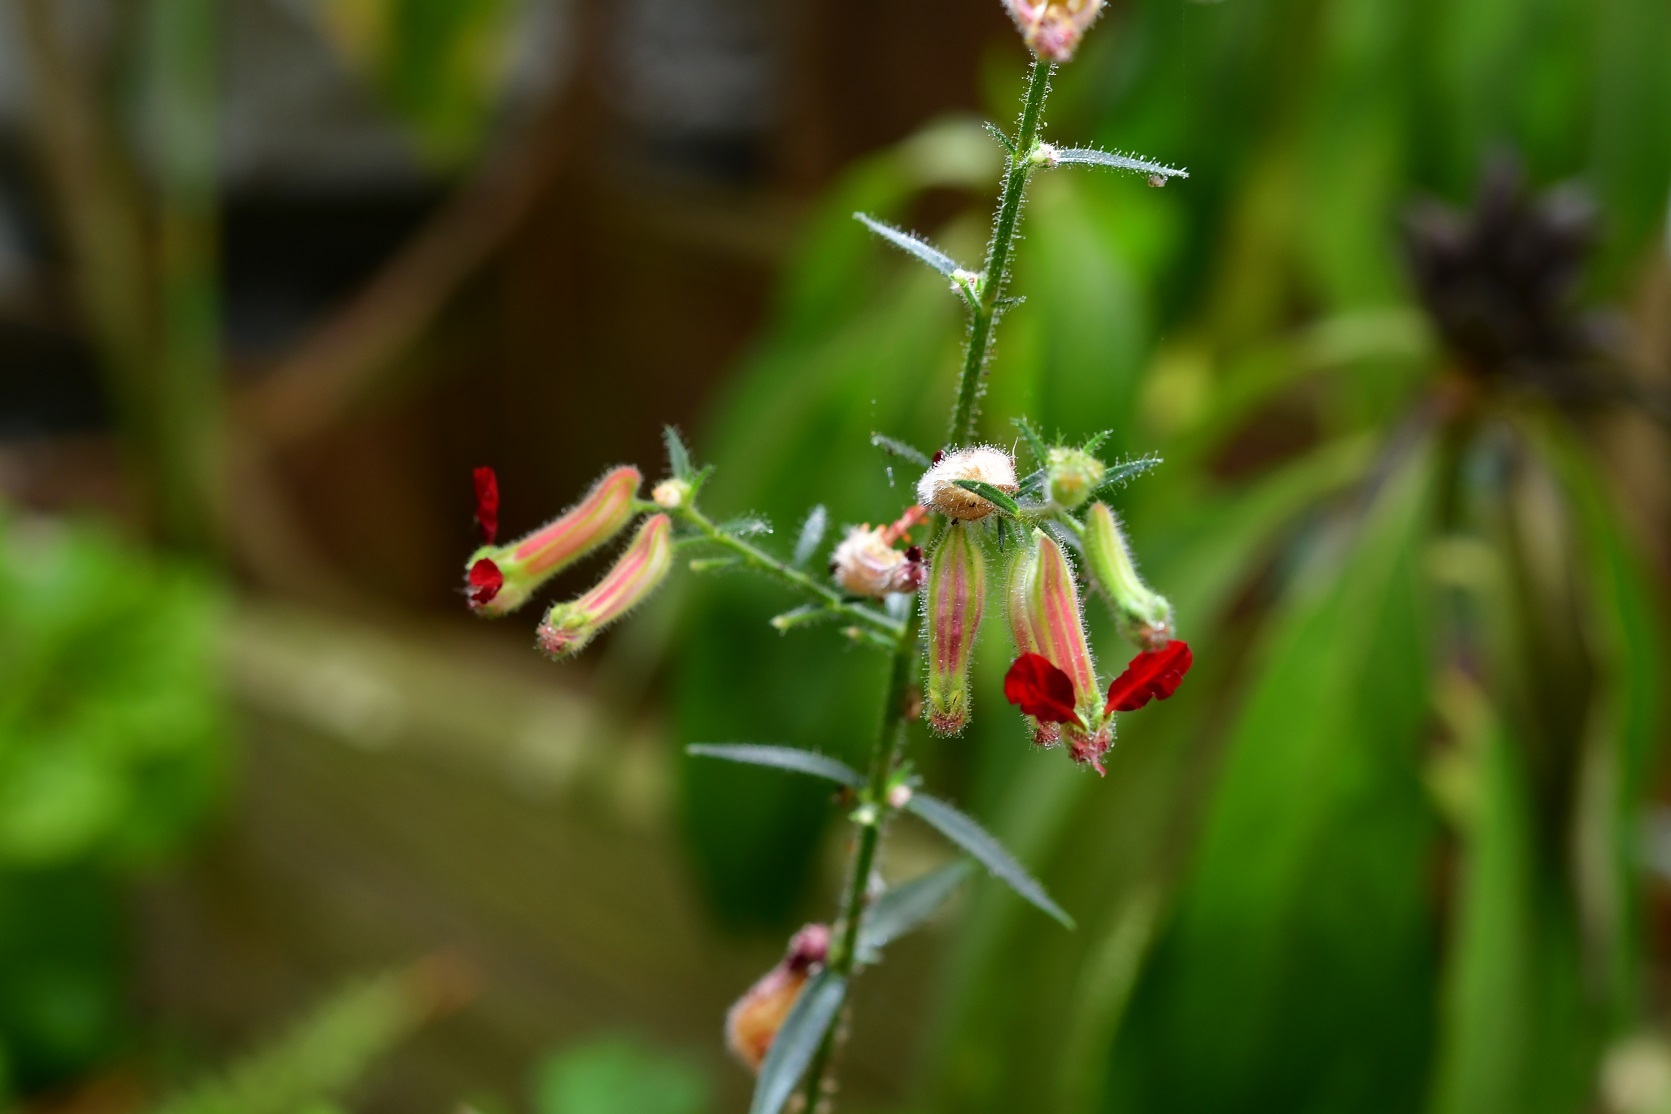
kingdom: Plantae
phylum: Tracheophyta
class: Magnoliopsida
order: Myrtales
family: Lythraceae
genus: Cuphea
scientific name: Cuphea hookeriana
